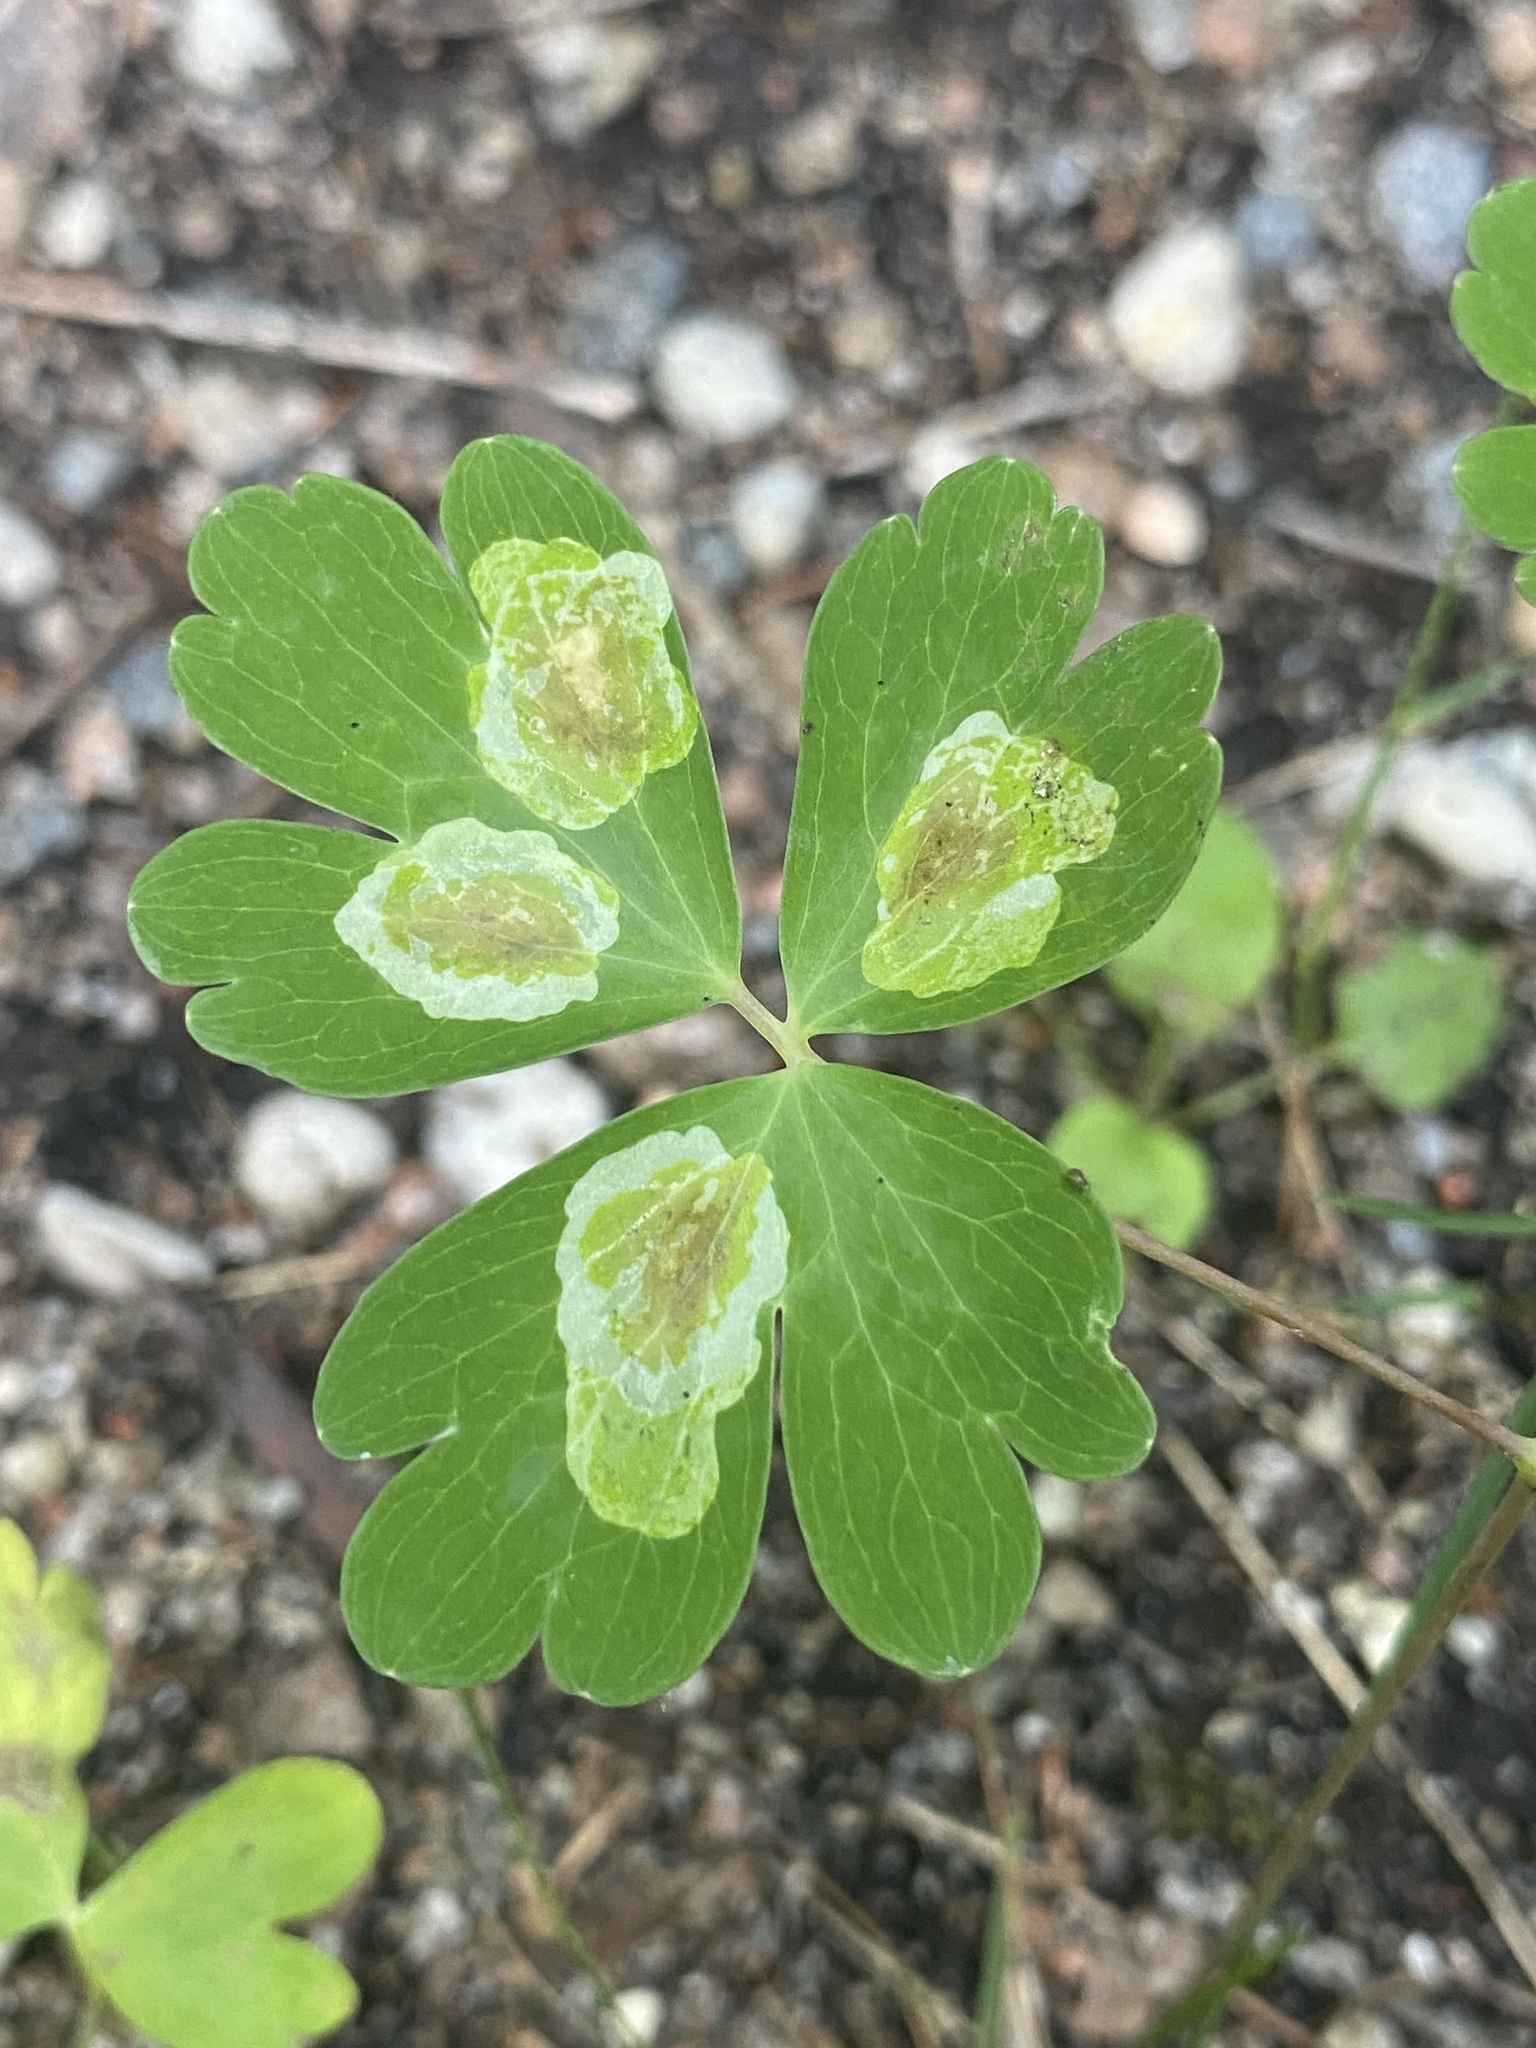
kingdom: Animalia
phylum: Arthropoda
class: Insecta
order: Diptera
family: Agromyzidae
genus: Phytomyza
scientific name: Phytomyza aquilegiana
